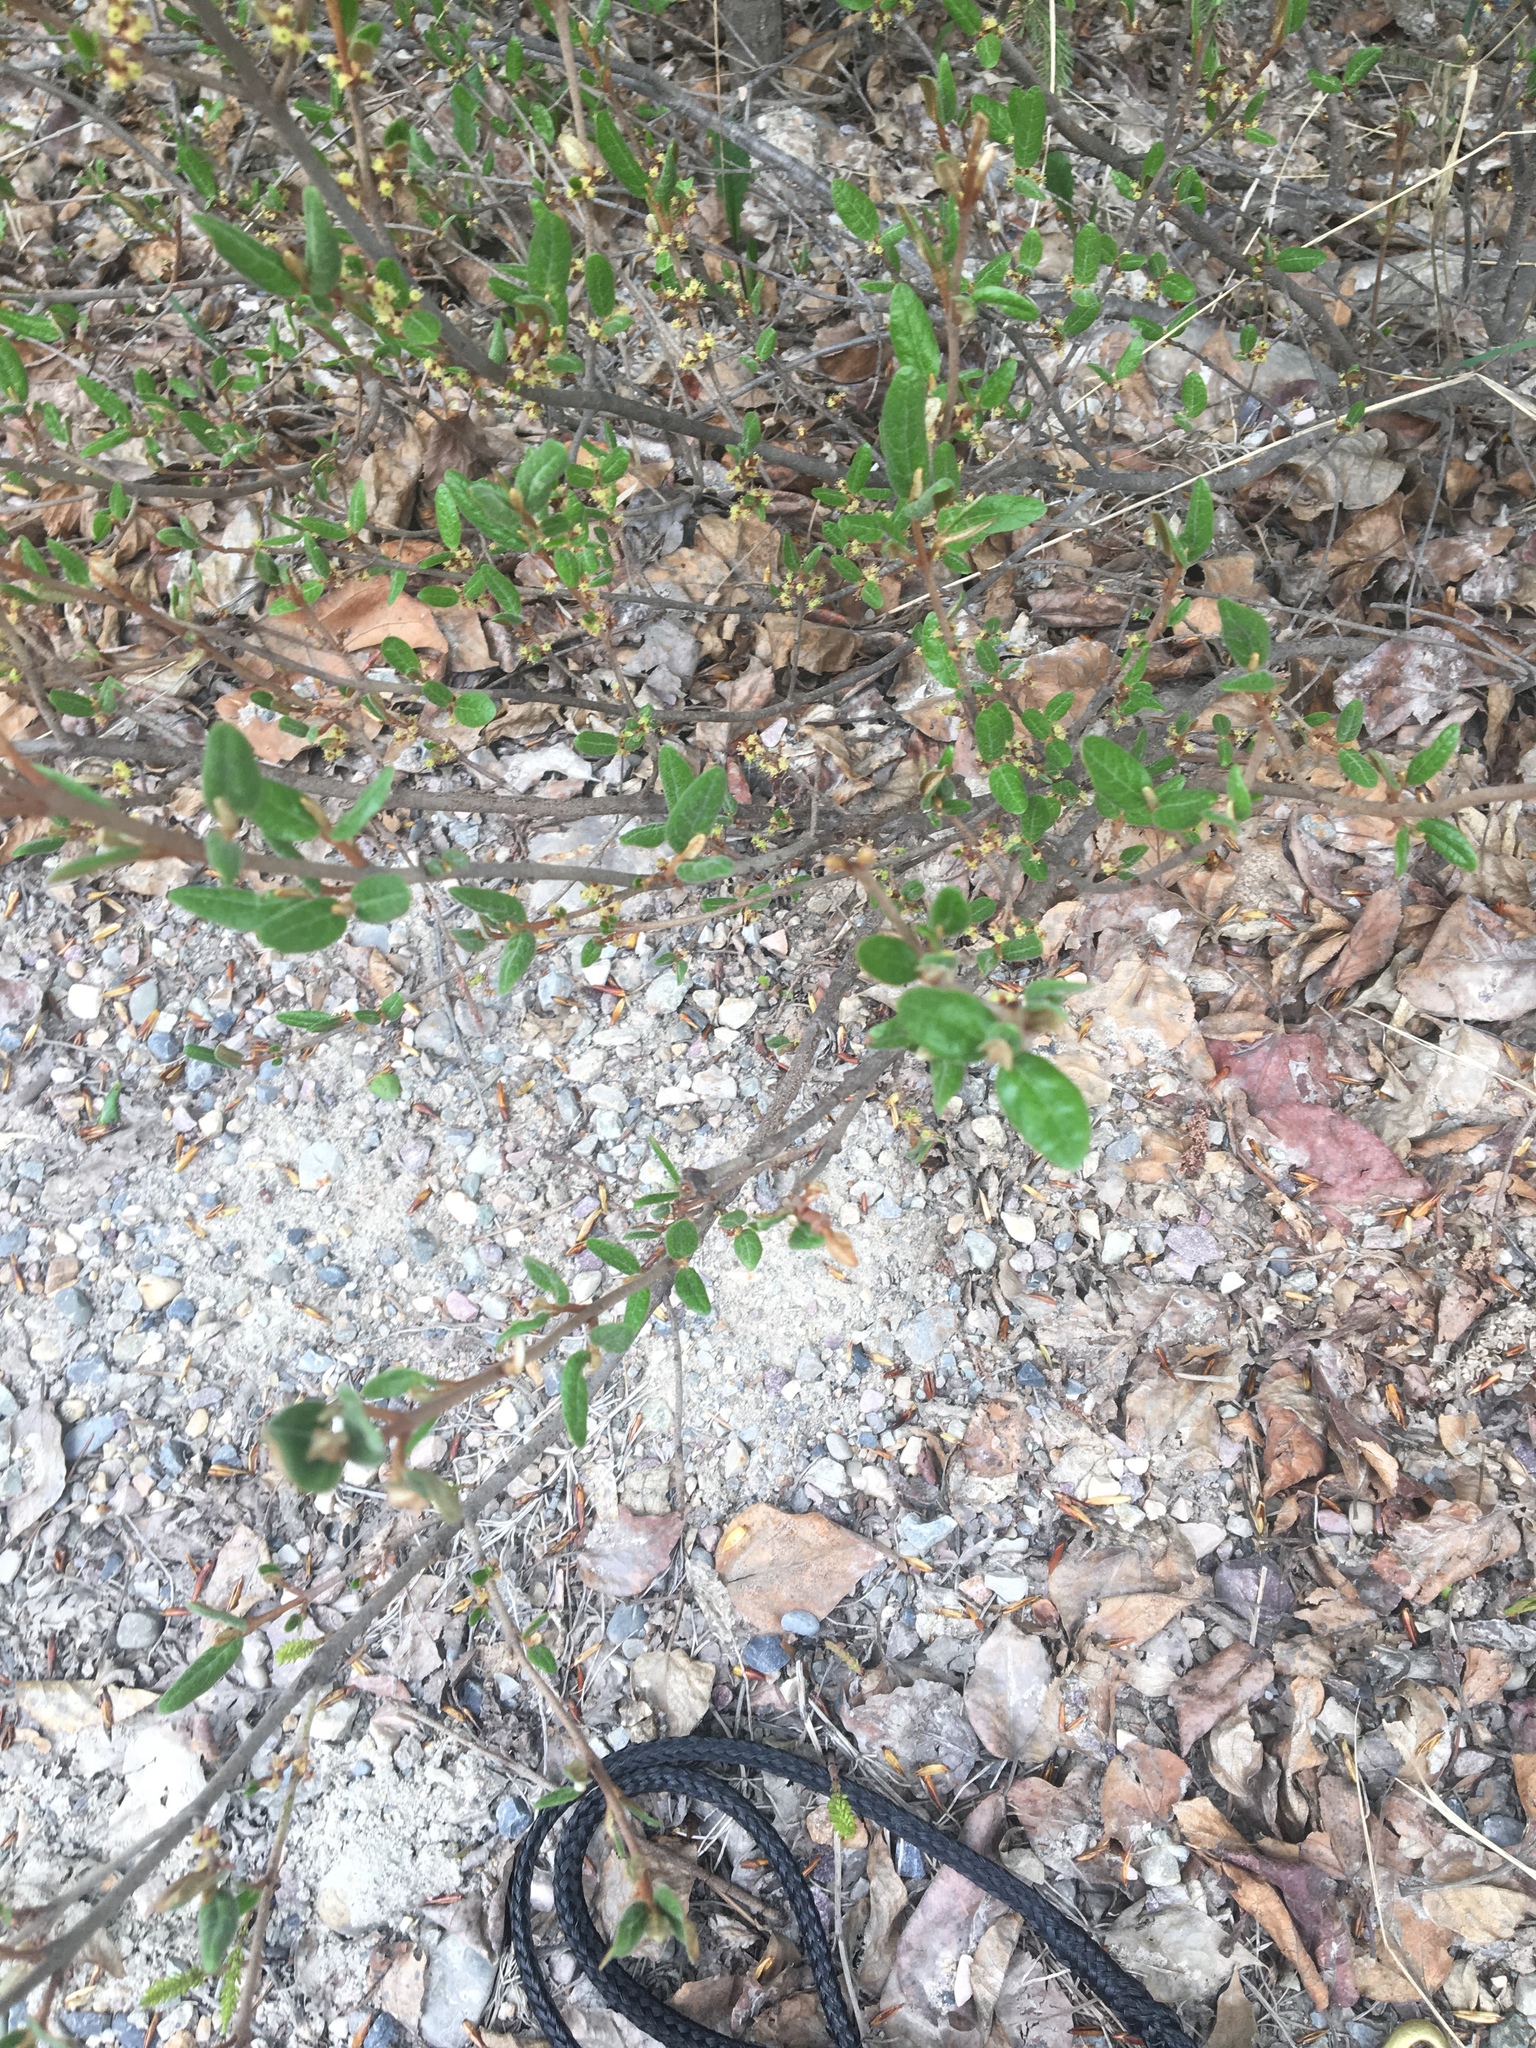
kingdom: Plantae
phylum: Tracheophyta
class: Magnoliopsida
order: Rosales
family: Elaeagnaceae
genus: Shepherdia
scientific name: Shepherdia canadensis
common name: Soapberry
